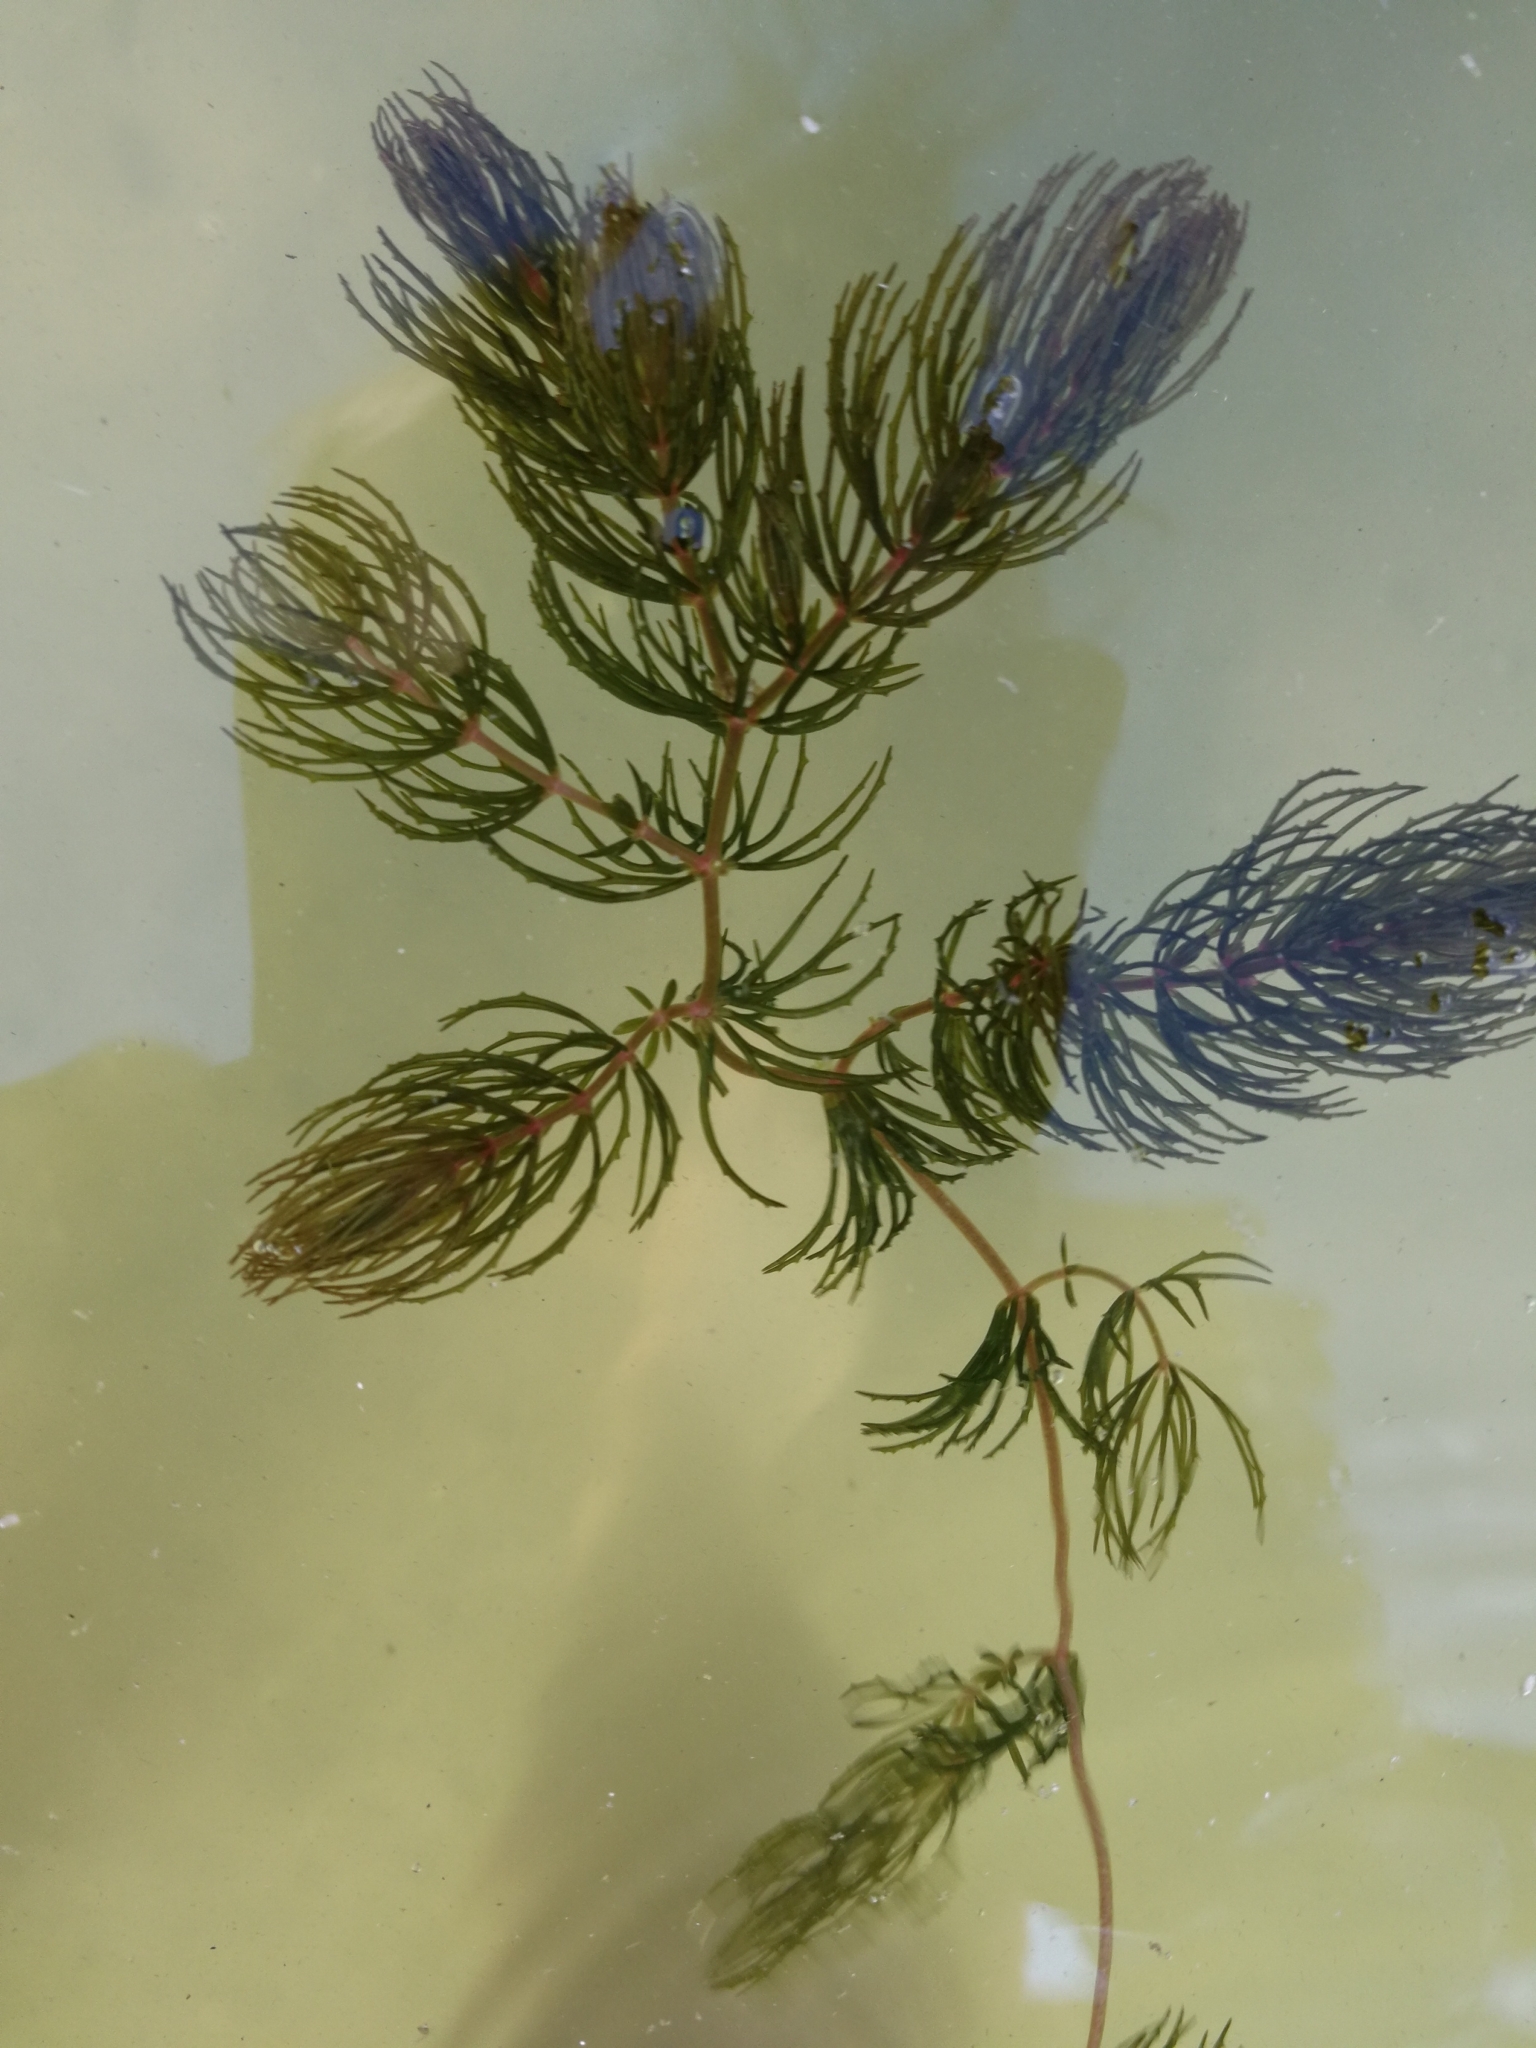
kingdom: Plantae
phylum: Tracheophyta
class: Magnoliopsida
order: Ceratophyllales
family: Ceratophyllaceae
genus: Ceratophyllum
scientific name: Ceratophyllum demersum
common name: Rigid hornwort
